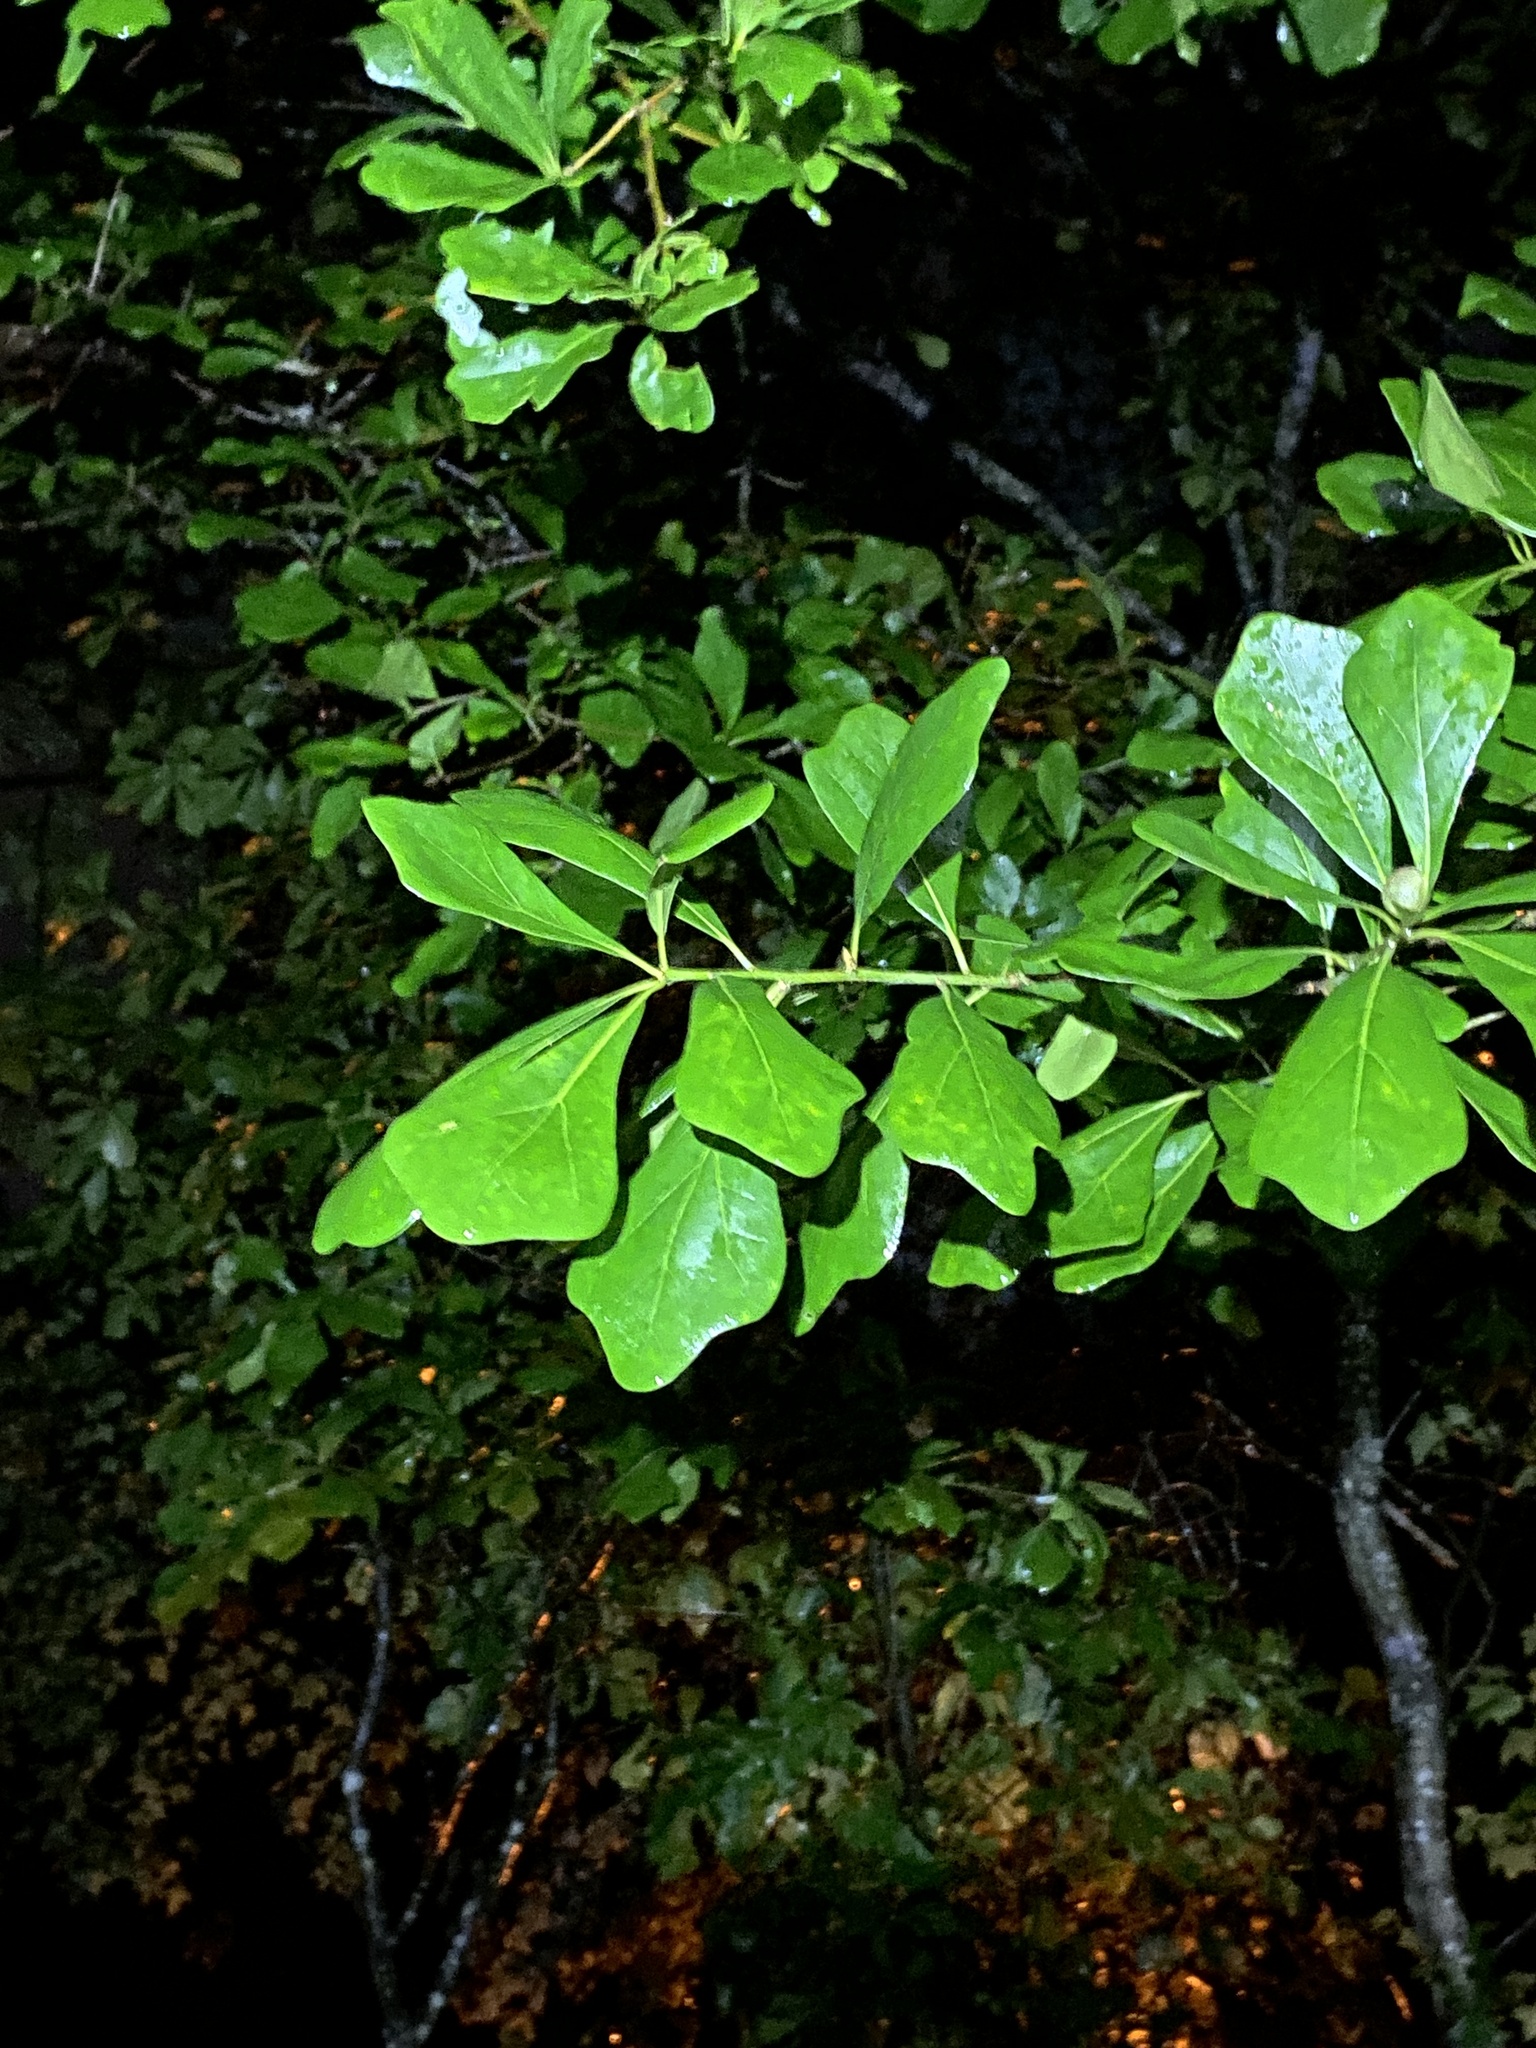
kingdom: Plantae
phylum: Tracheophyta
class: Magnoliopsida
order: Fagales
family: Fagaceae
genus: Quercus
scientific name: Quercus nigra
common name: Water oak
